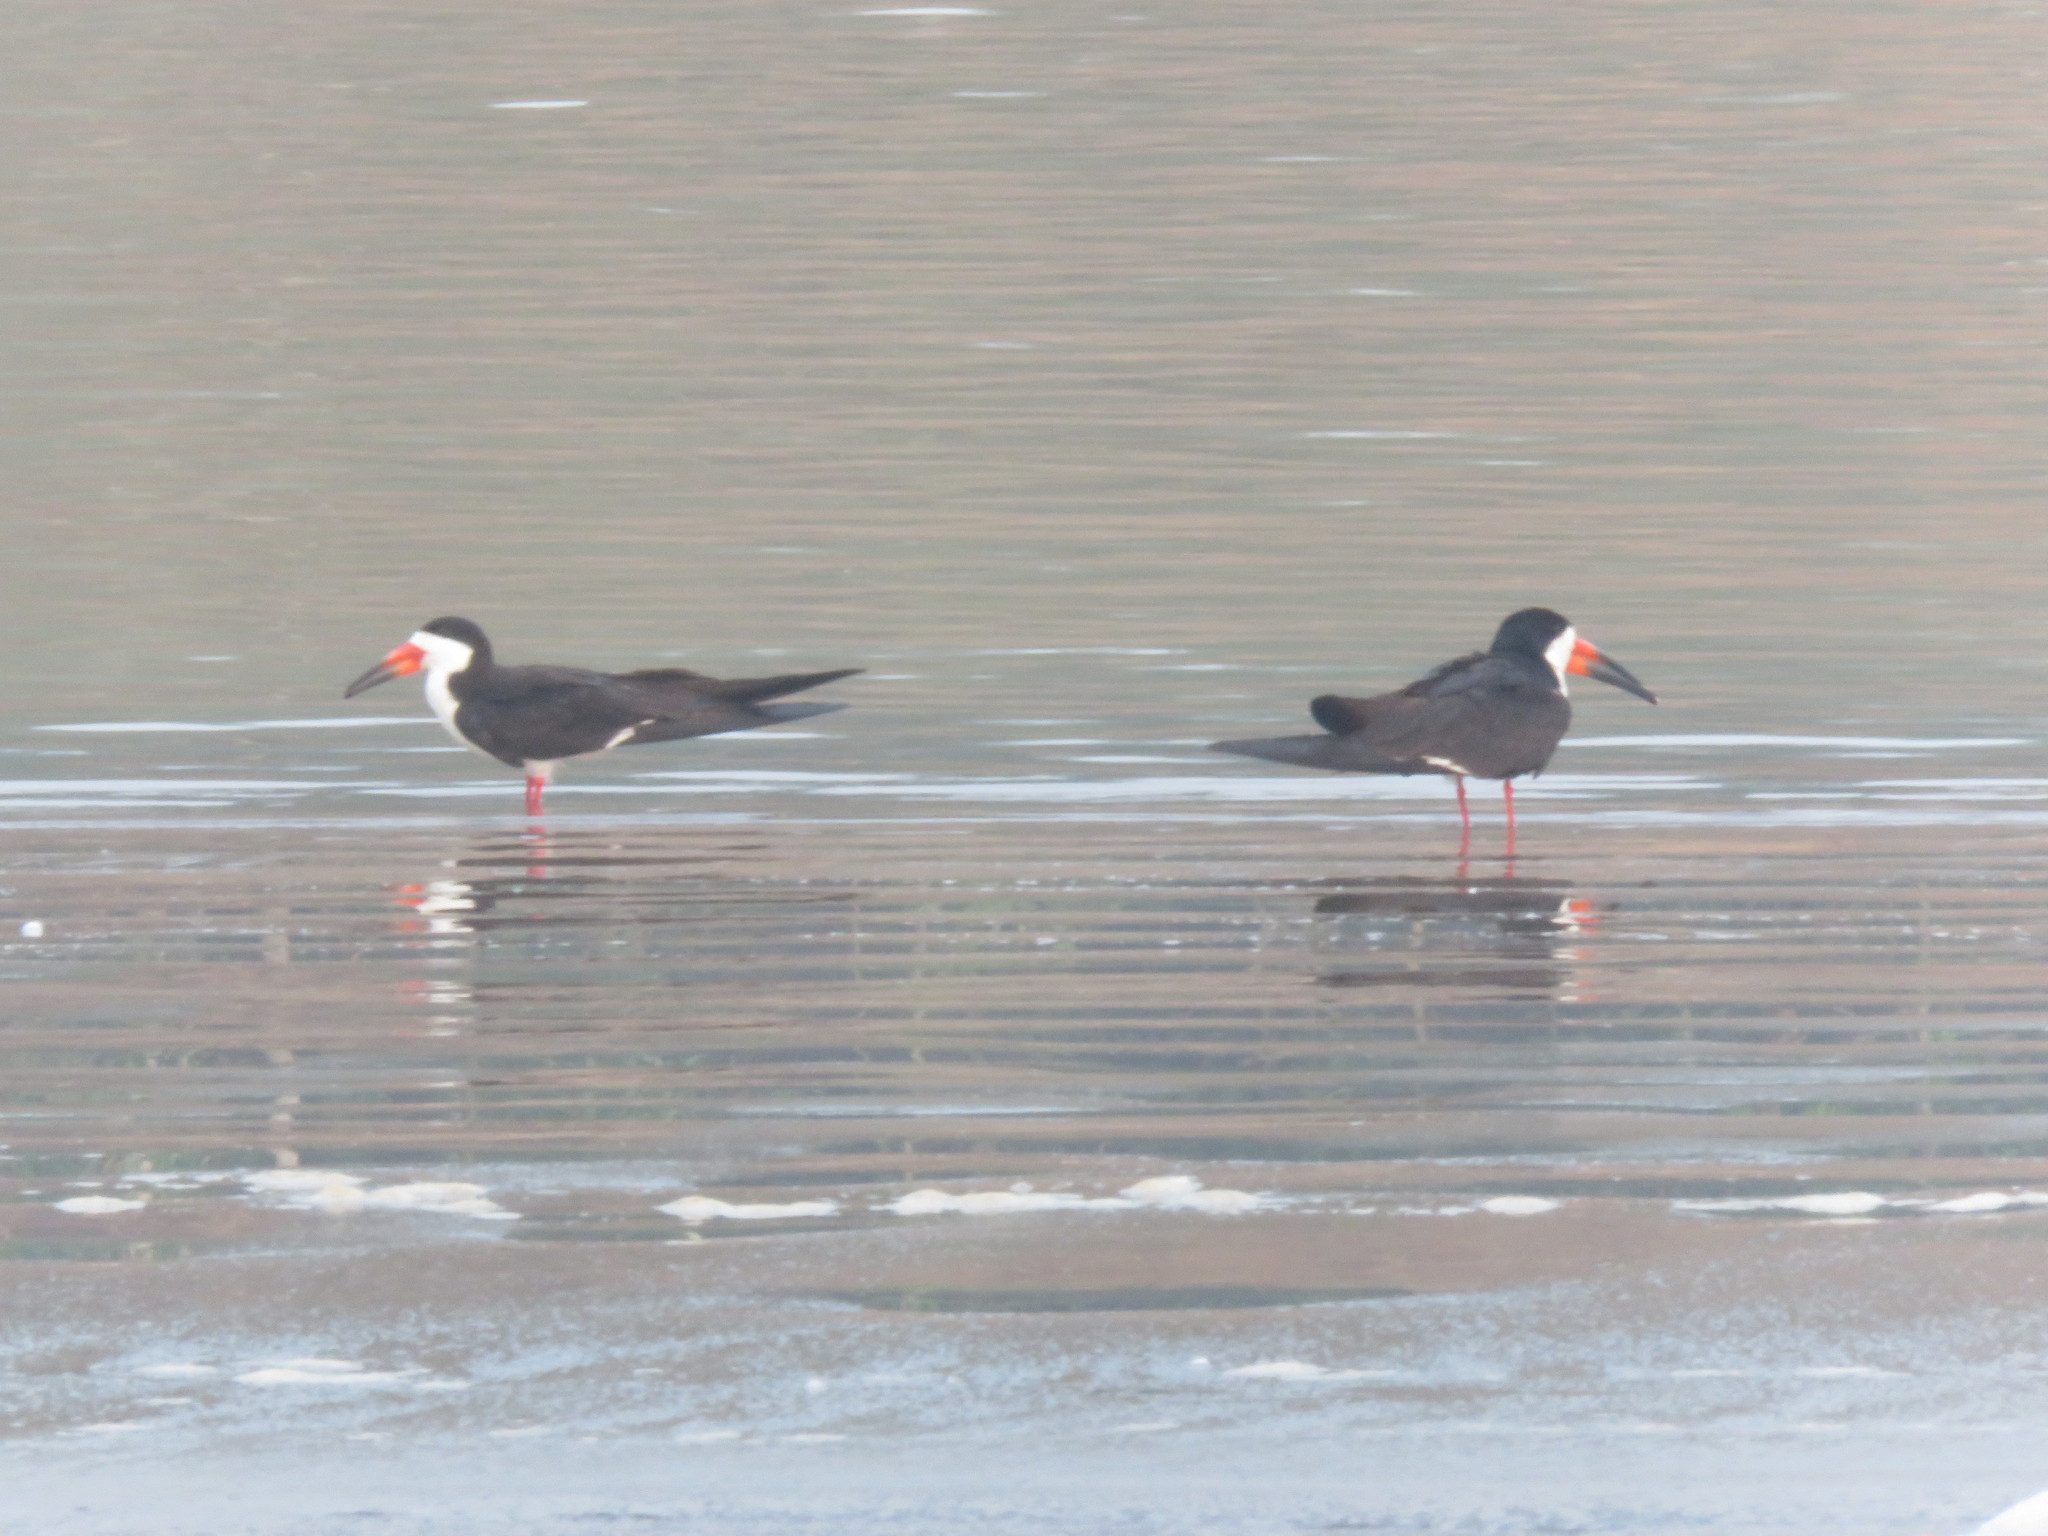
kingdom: Animalia
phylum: Chordata
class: Aves
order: Charadriiformes
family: Laridae
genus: Rynchops
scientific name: Rynchops niger
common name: Black skimmer
